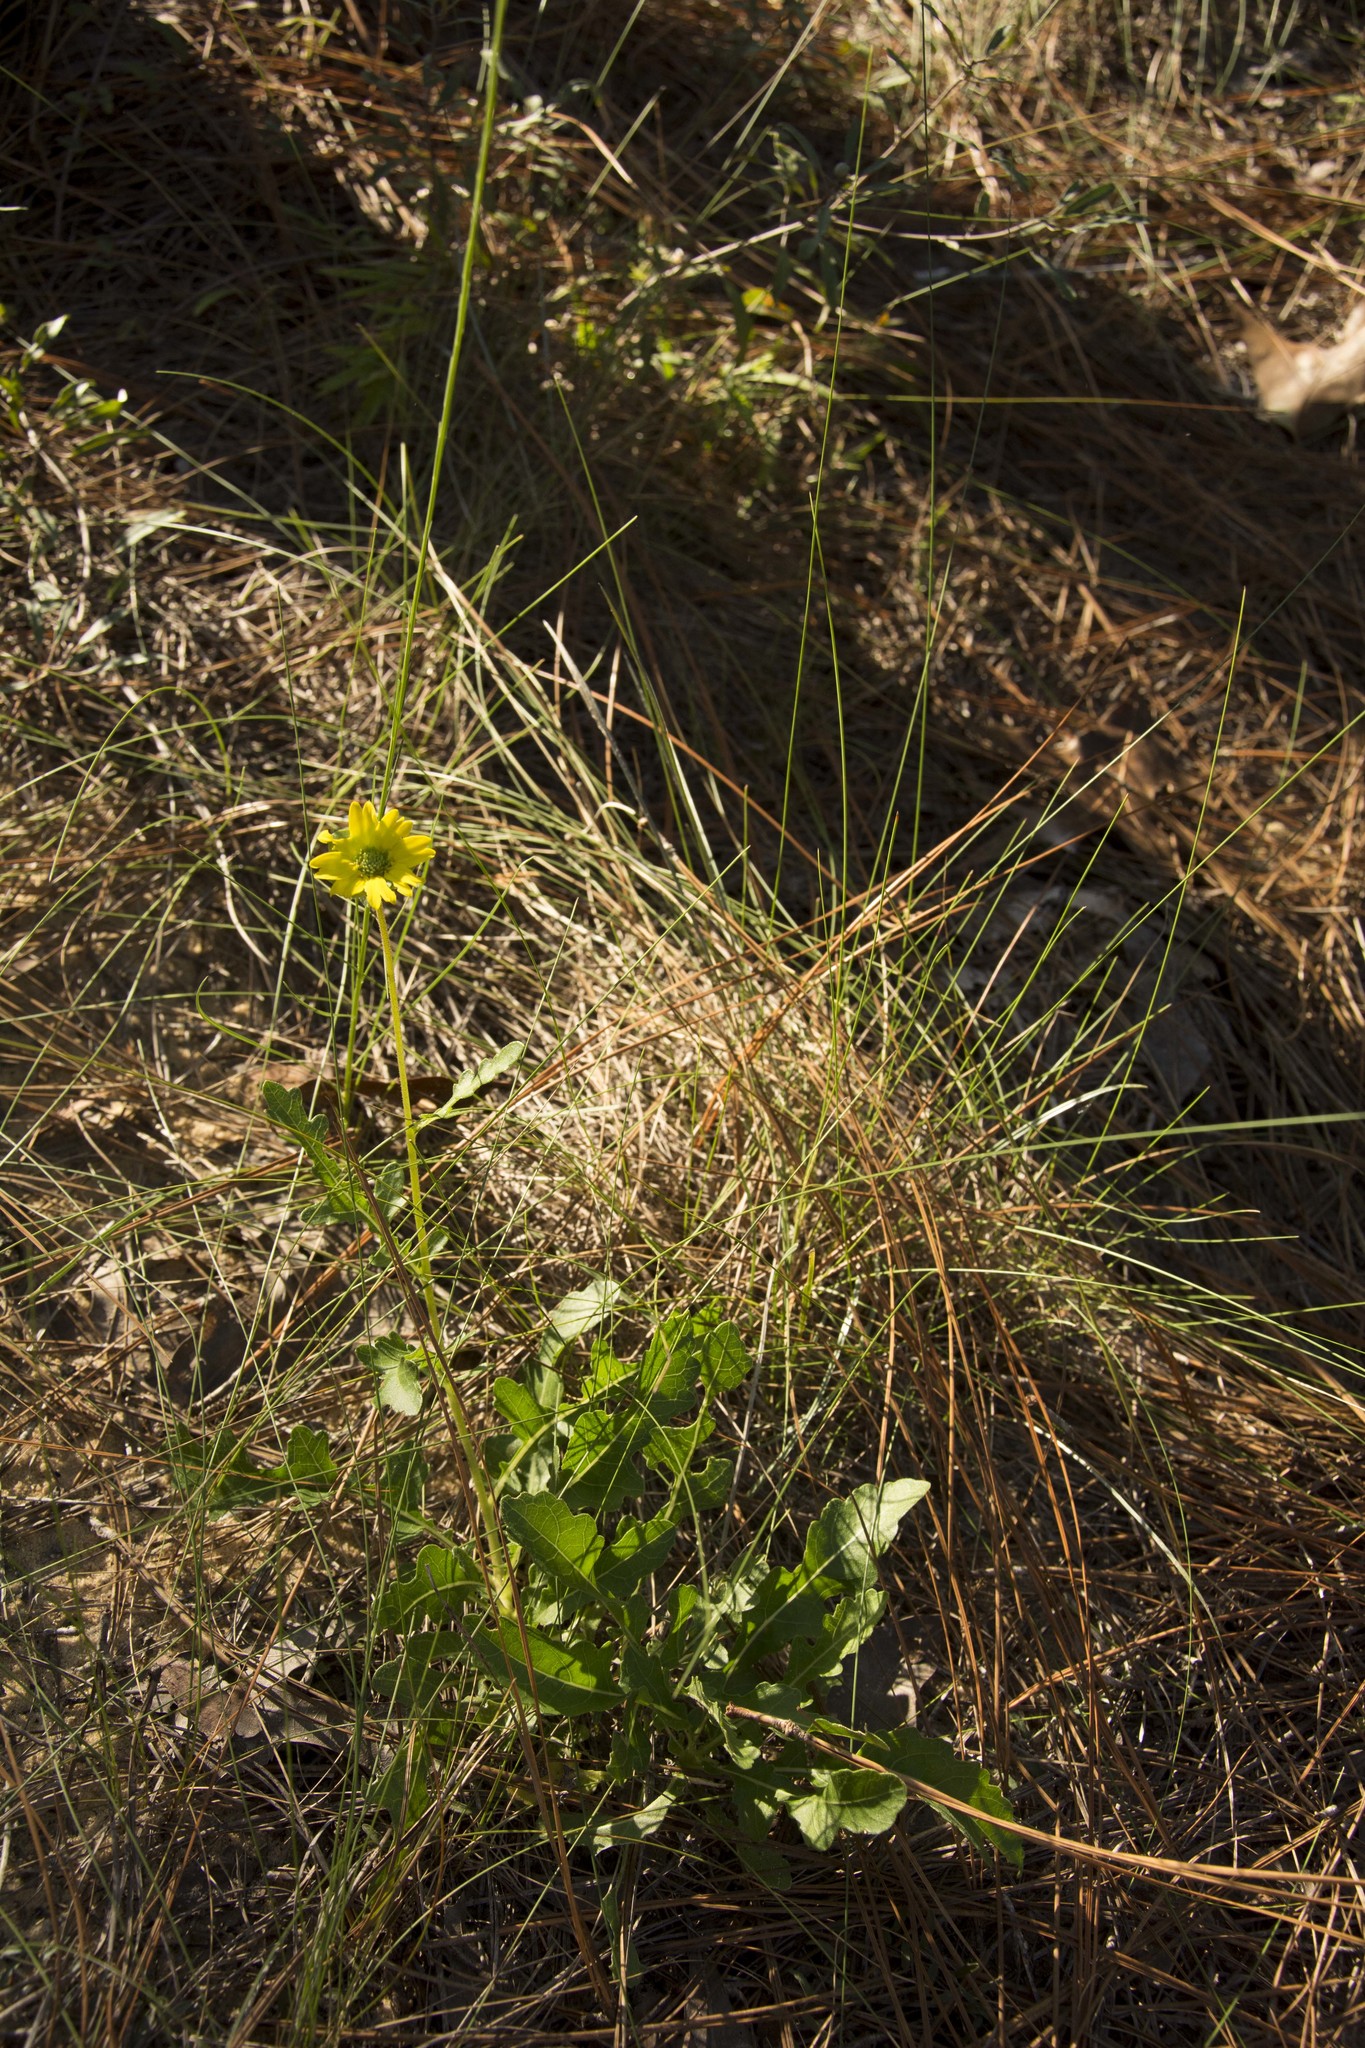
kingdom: Plantae
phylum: Tracheophyta
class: Magnoliopsida
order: Asterales
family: Asteraceae
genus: Berlandiera
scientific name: Berlandiera subacaulis
